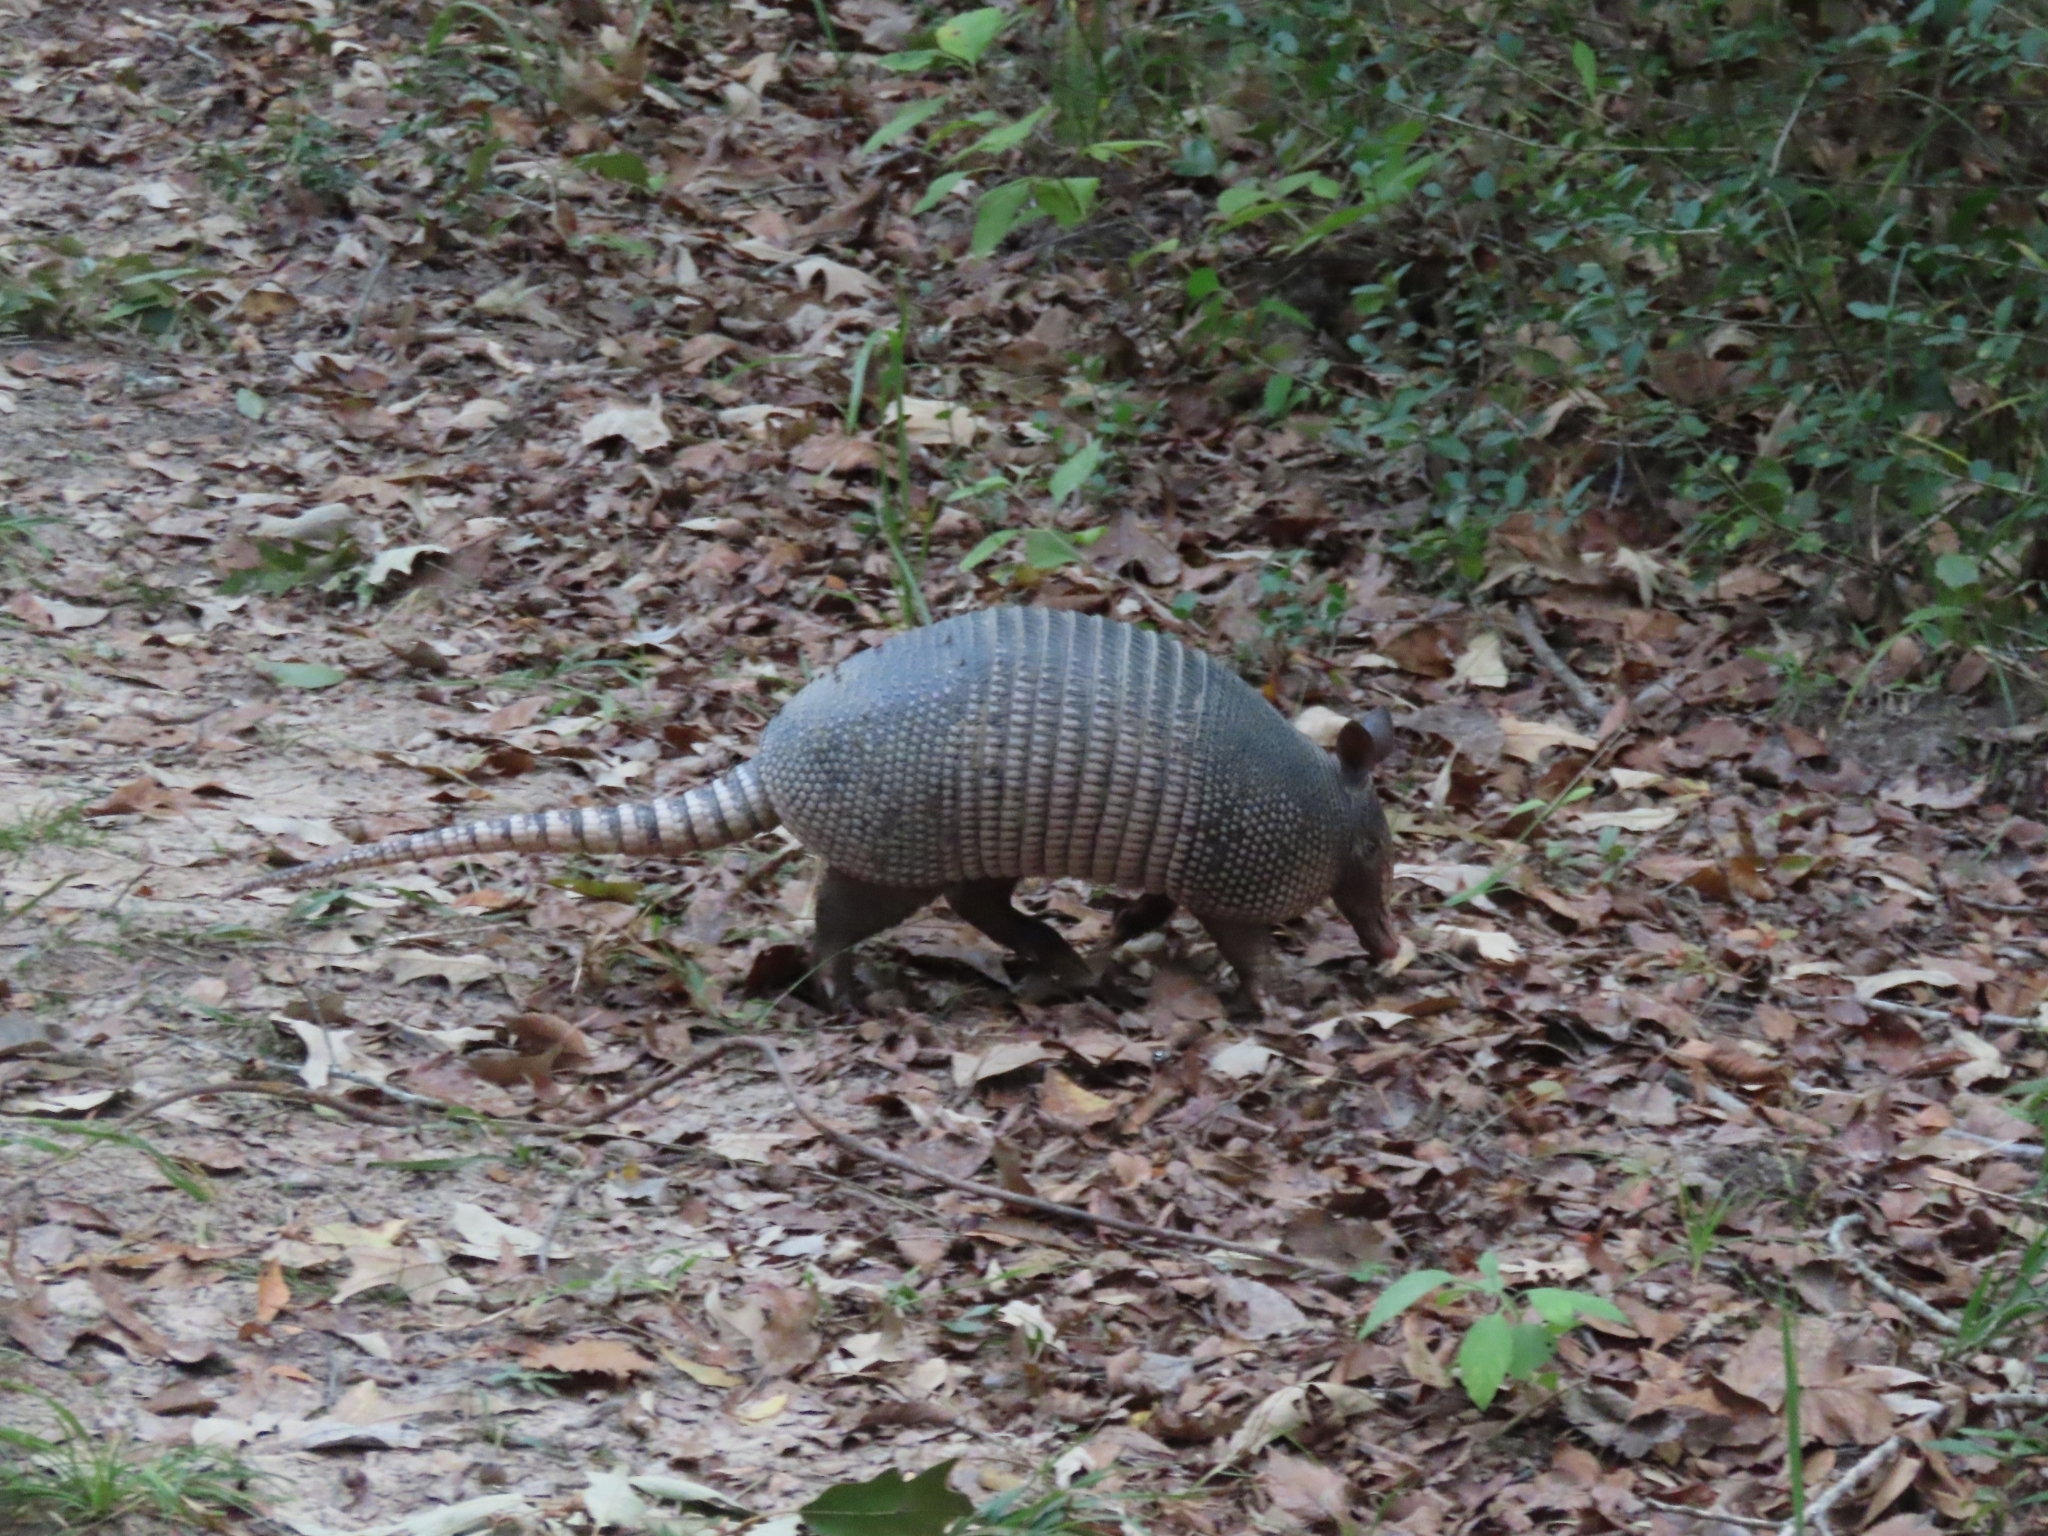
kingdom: Animalia
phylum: Chordata
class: Mammalia
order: Cingulata
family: Dasypodidae
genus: Dasypus
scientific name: Dasypus novemcinctus
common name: Nine-banded armadillo
